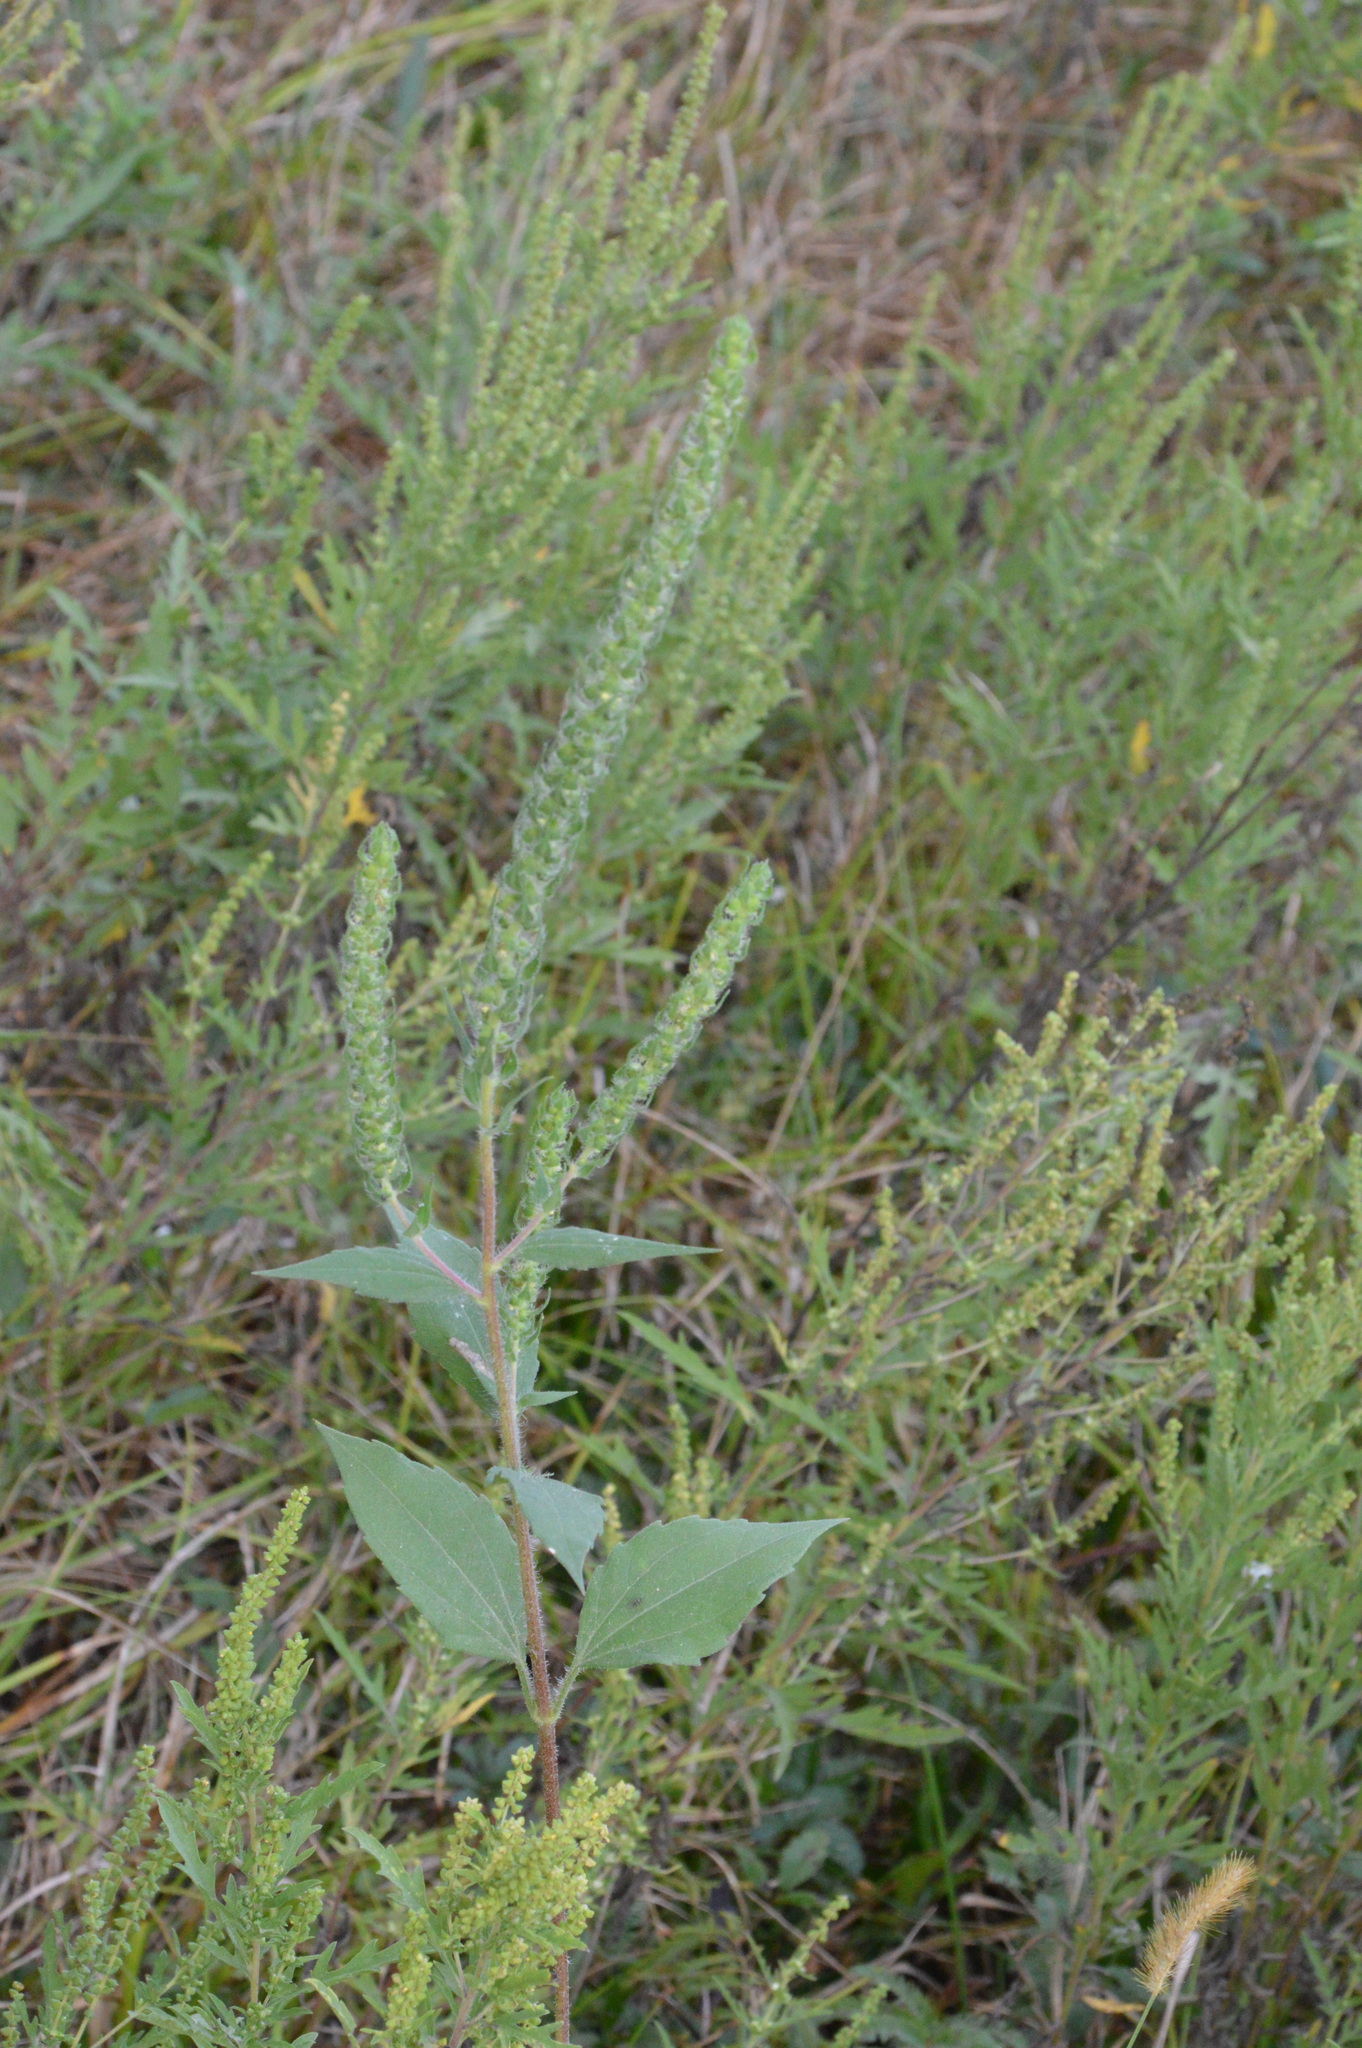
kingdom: Plantae
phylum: Tracheophyta
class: Magnoliopsida
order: Asterales
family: Asteraceae
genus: Iva
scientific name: Iva annua
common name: Marsh-elder
